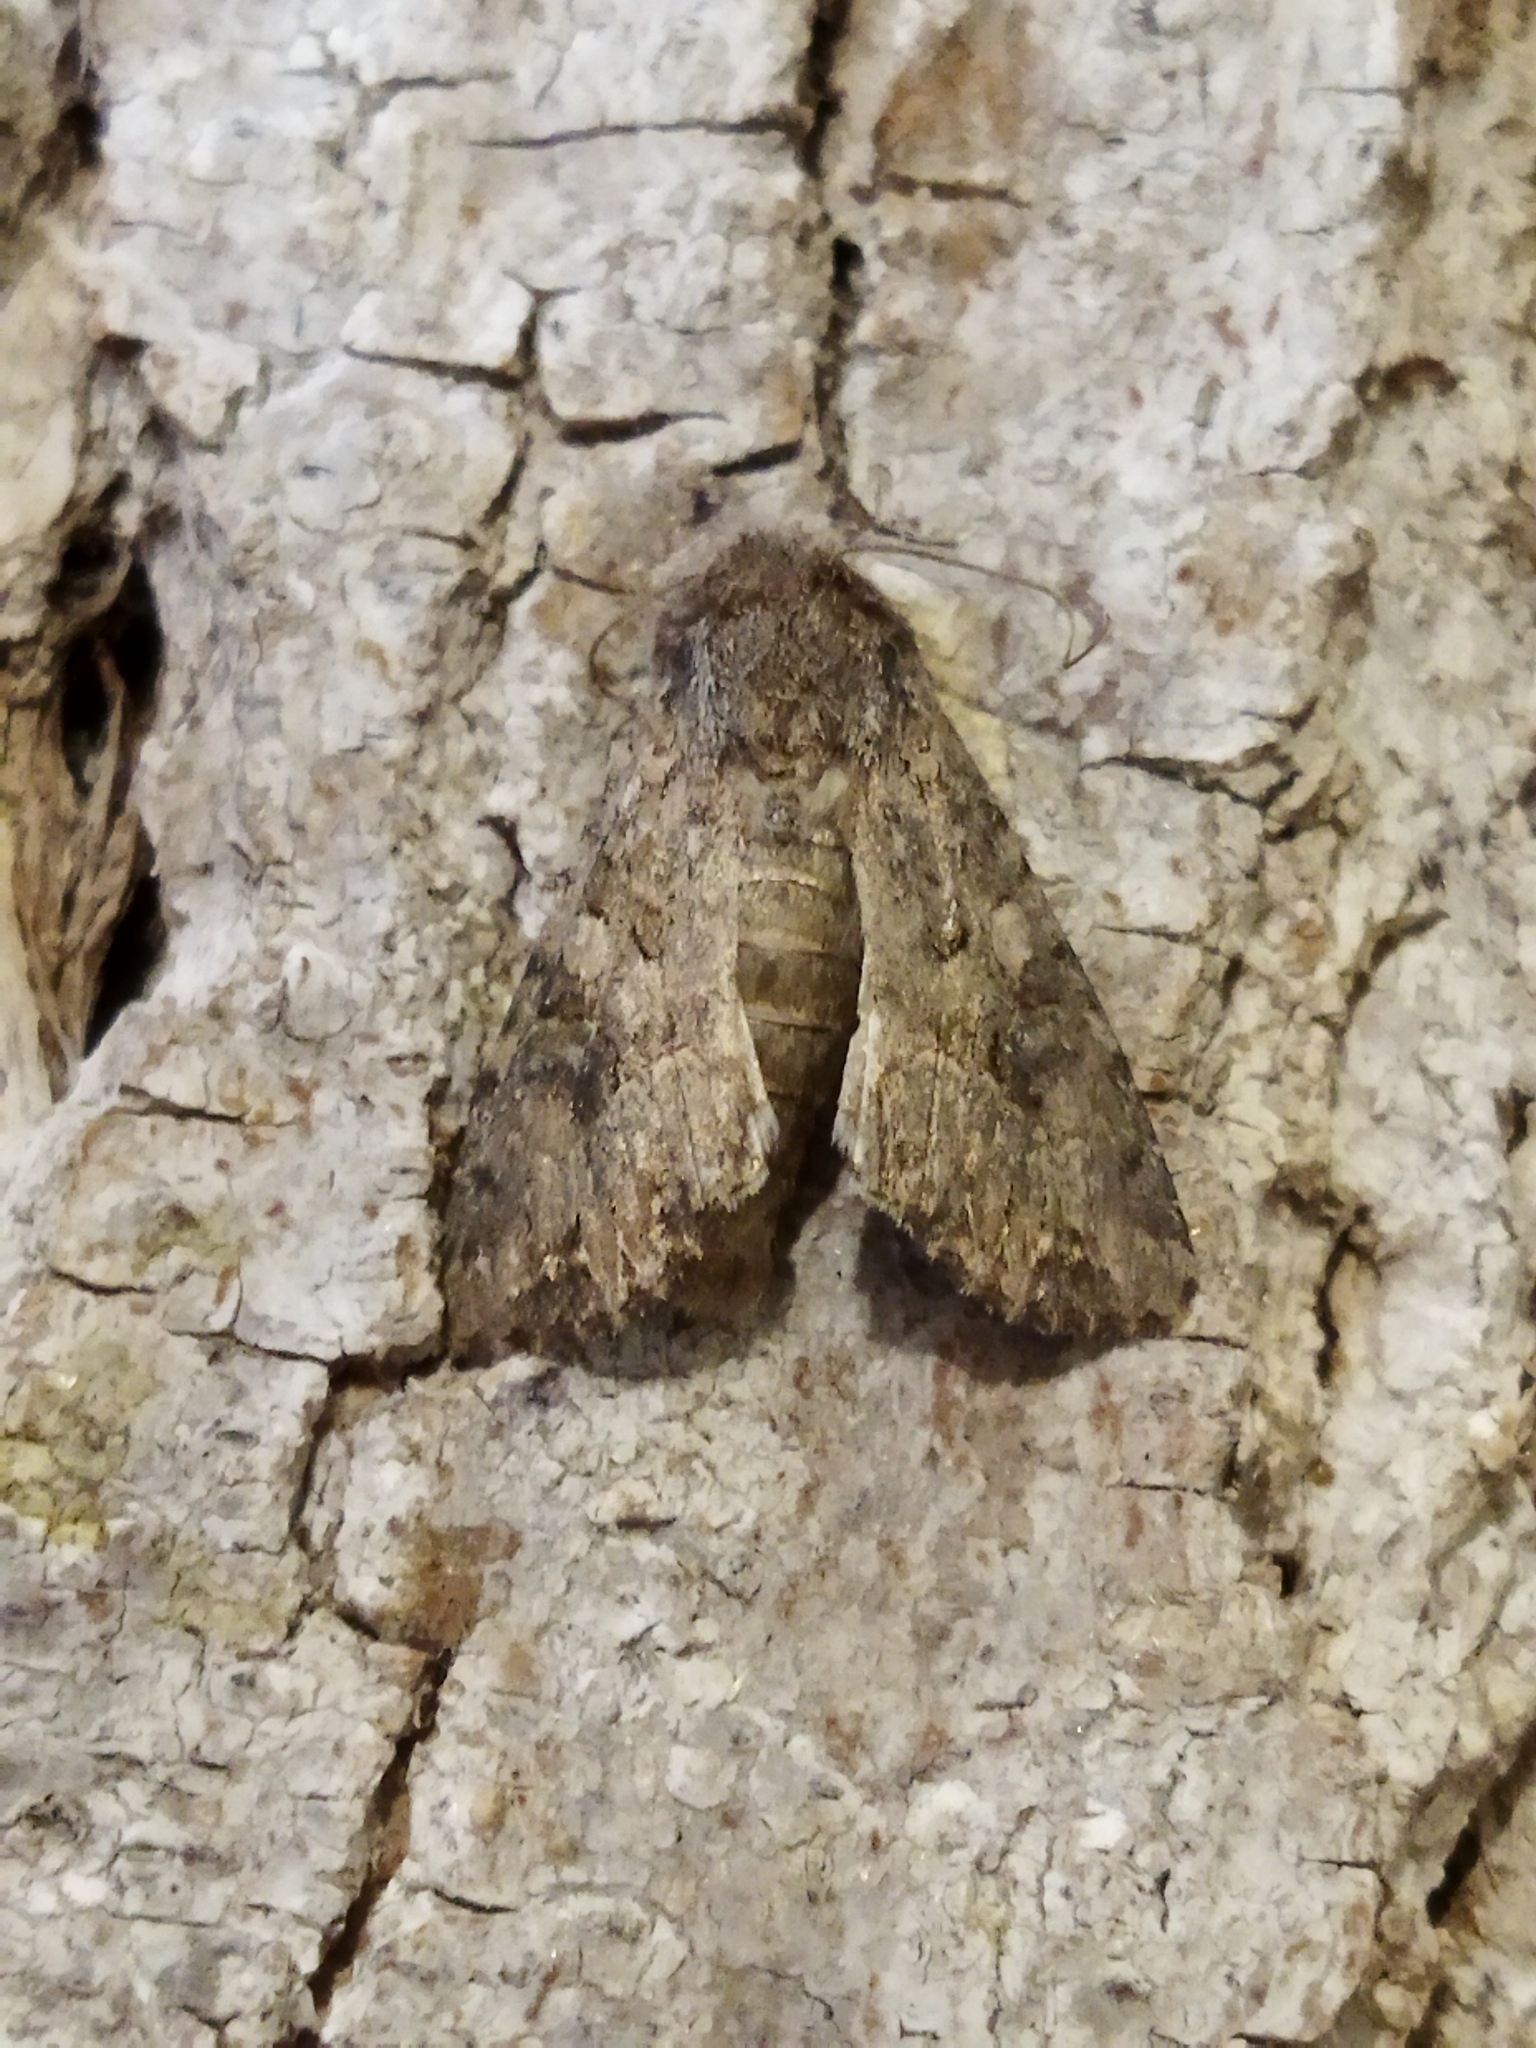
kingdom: Animalia
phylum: Arthropoda
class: Insecta
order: Lepidoptera
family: Noctuidae
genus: Anarta
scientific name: Anarta trifolii
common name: Clover cutworm moth
